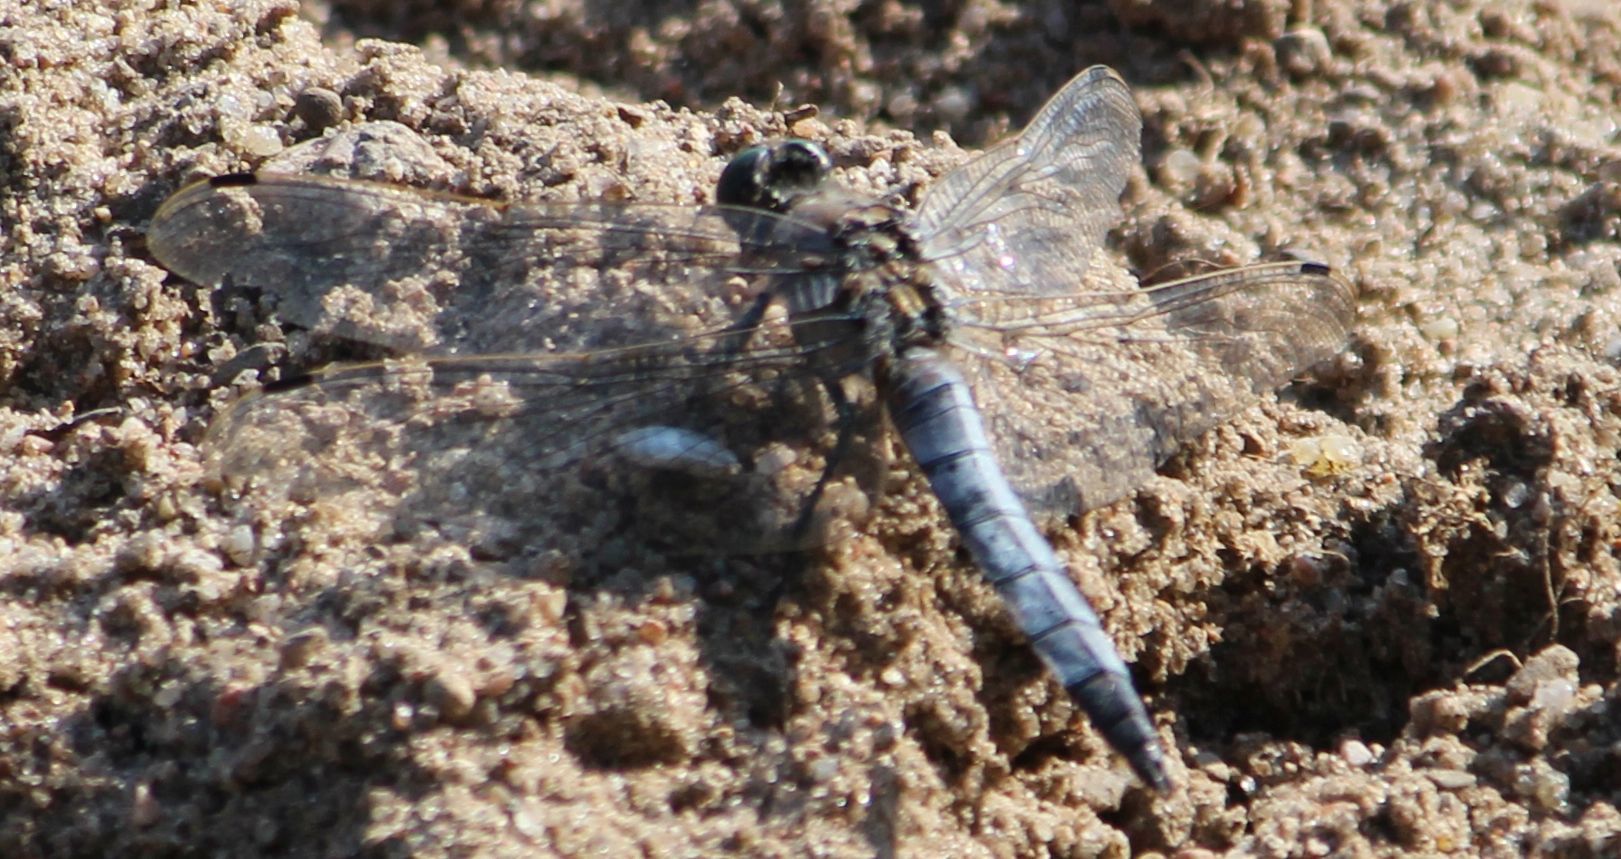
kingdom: Animalia
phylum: Arthropoda
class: Insecta
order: Odonata
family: Libellulidae
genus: Orthetrum
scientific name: Orthetrum cancellatum
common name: Black-tailed skimmer
